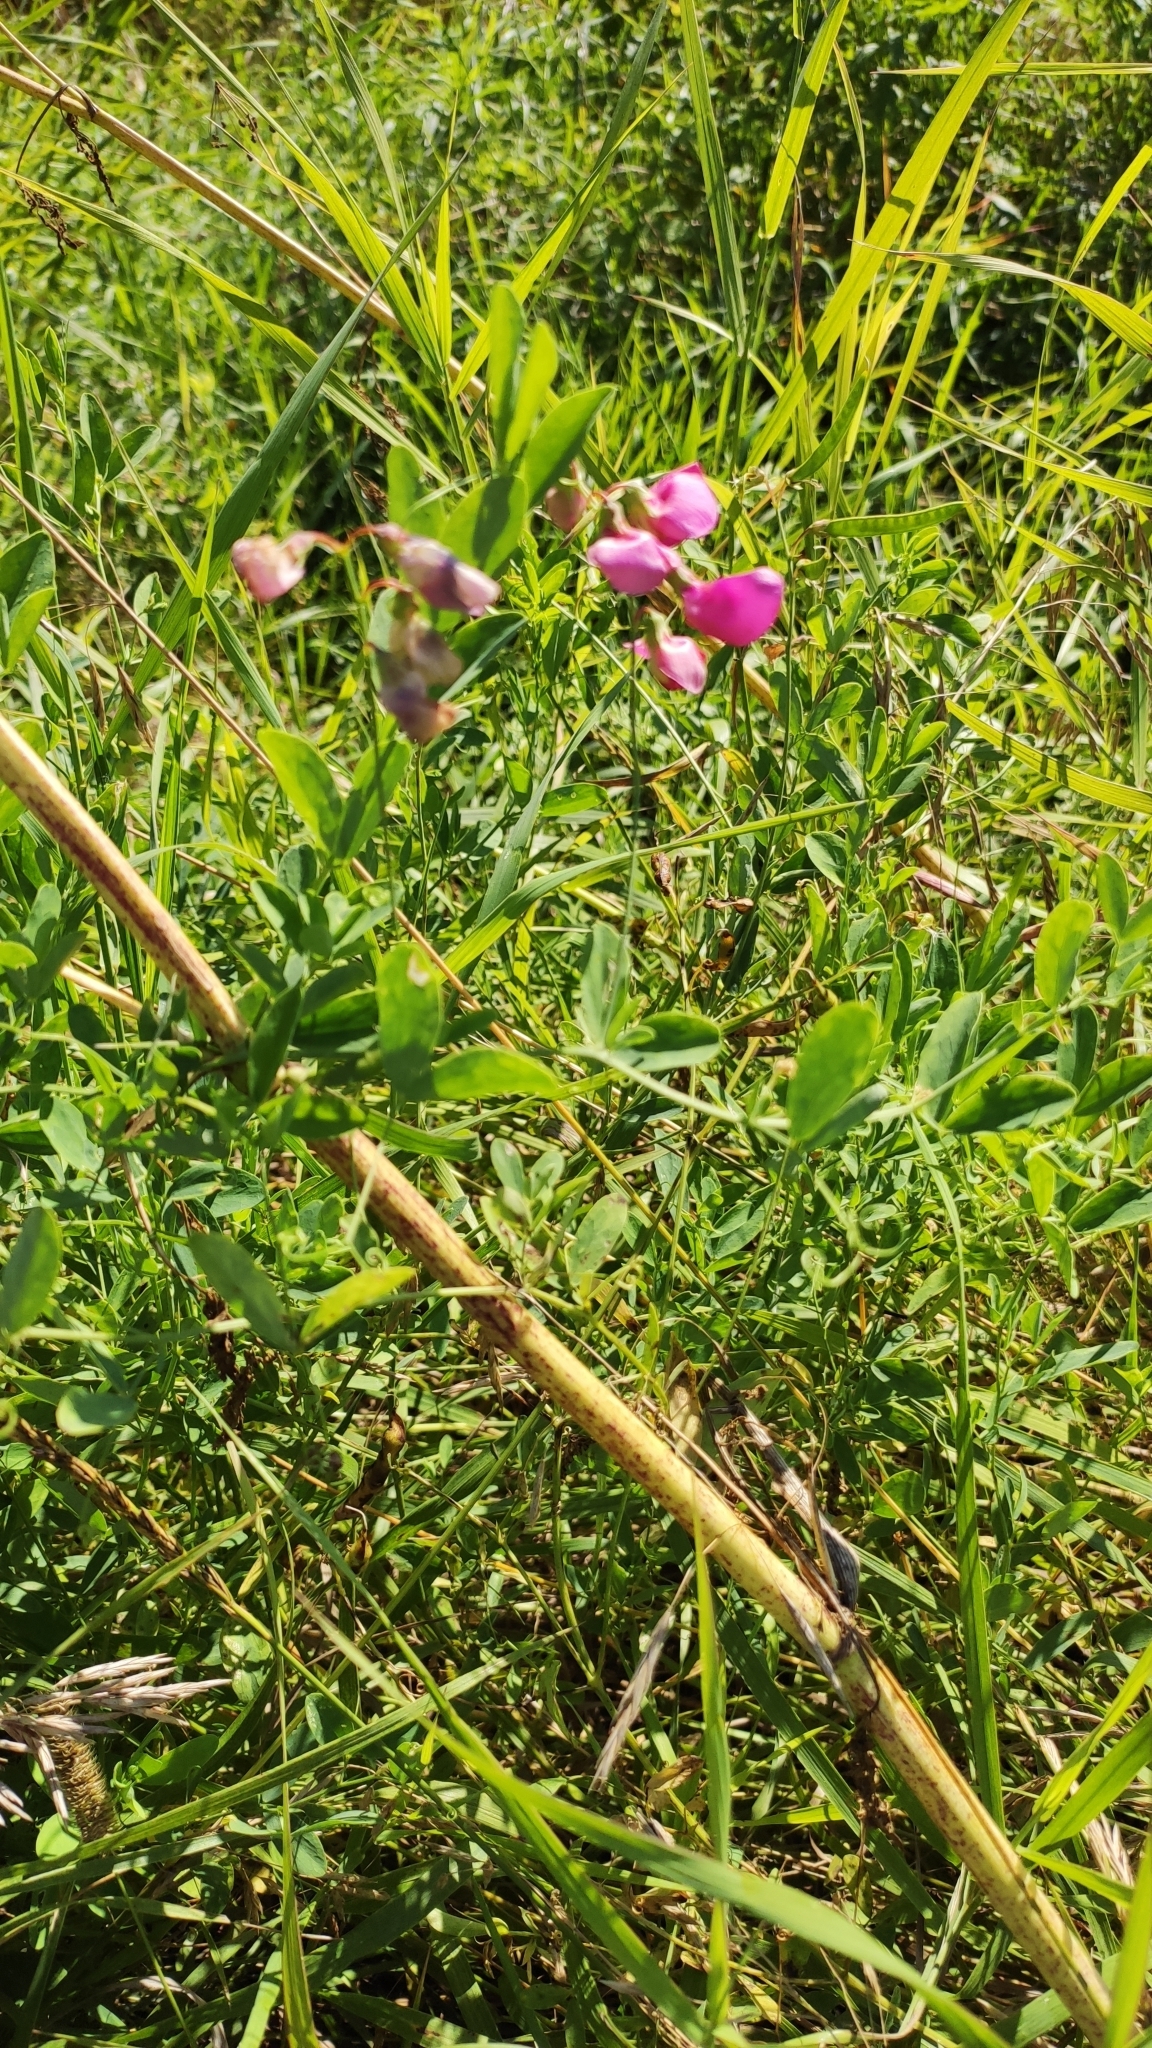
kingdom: Plantae
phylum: Tracheophyta
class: Magnoliopsida
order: Fabales
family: Fabaceae
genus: Lathyrus
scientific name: Lathyrus tuberosus
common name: Tuberous pea
